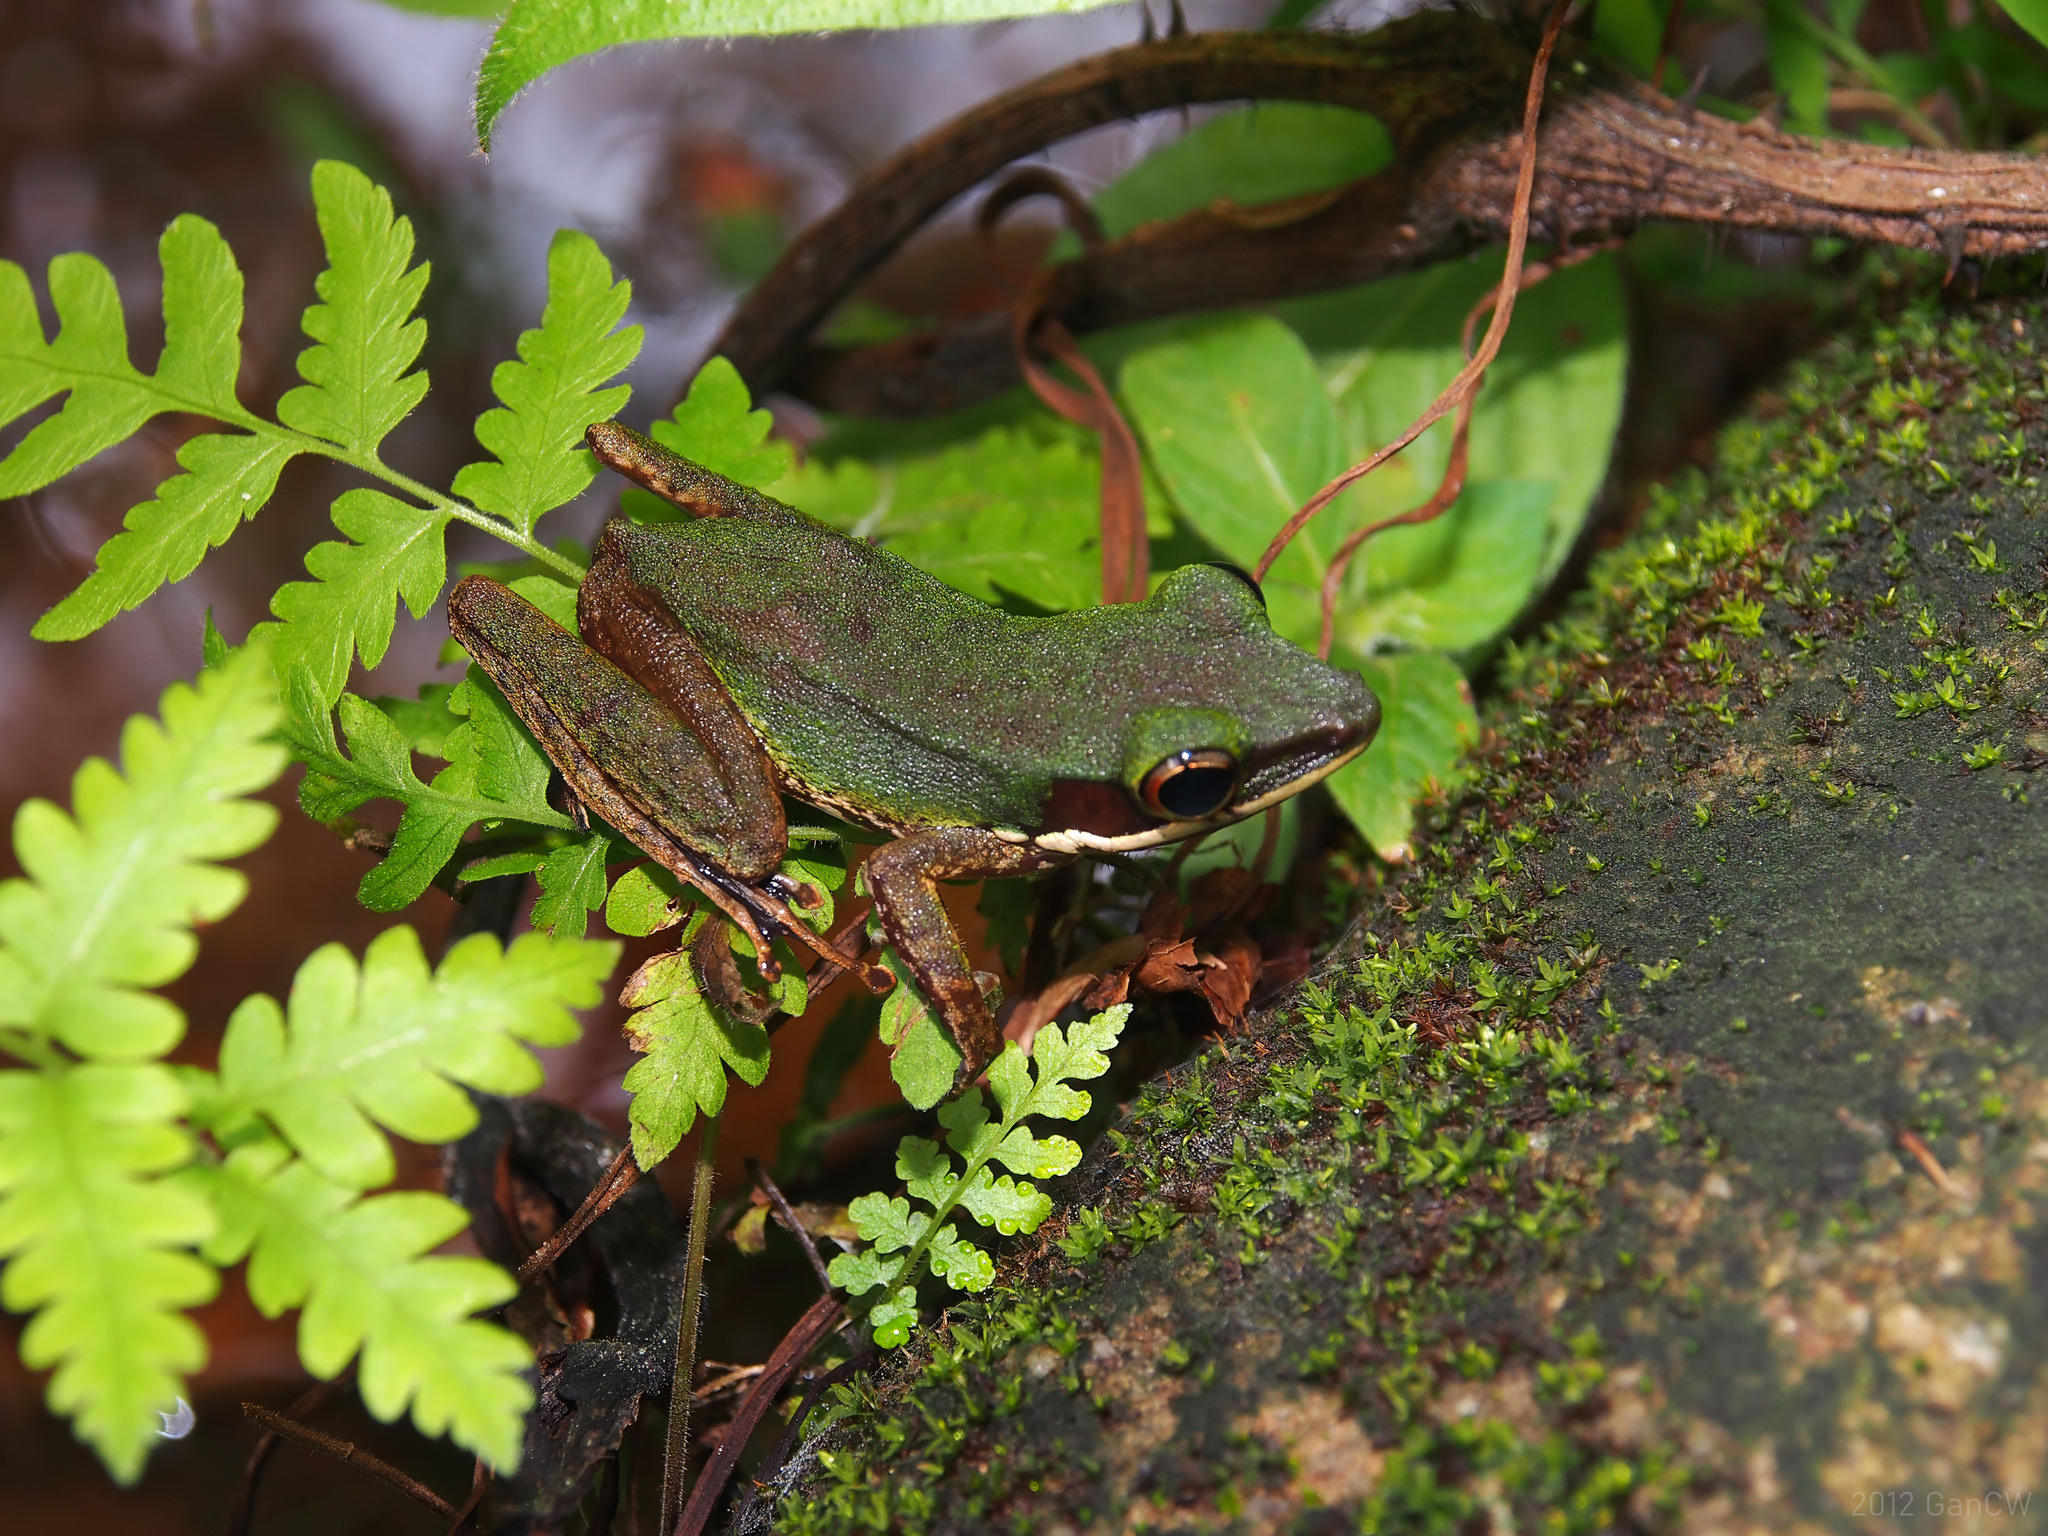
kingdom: Animalia
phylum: Chordata
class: Amphibia
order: Anura
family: Ranidae
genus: Chalcorana
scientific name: Chalcorana labialis
